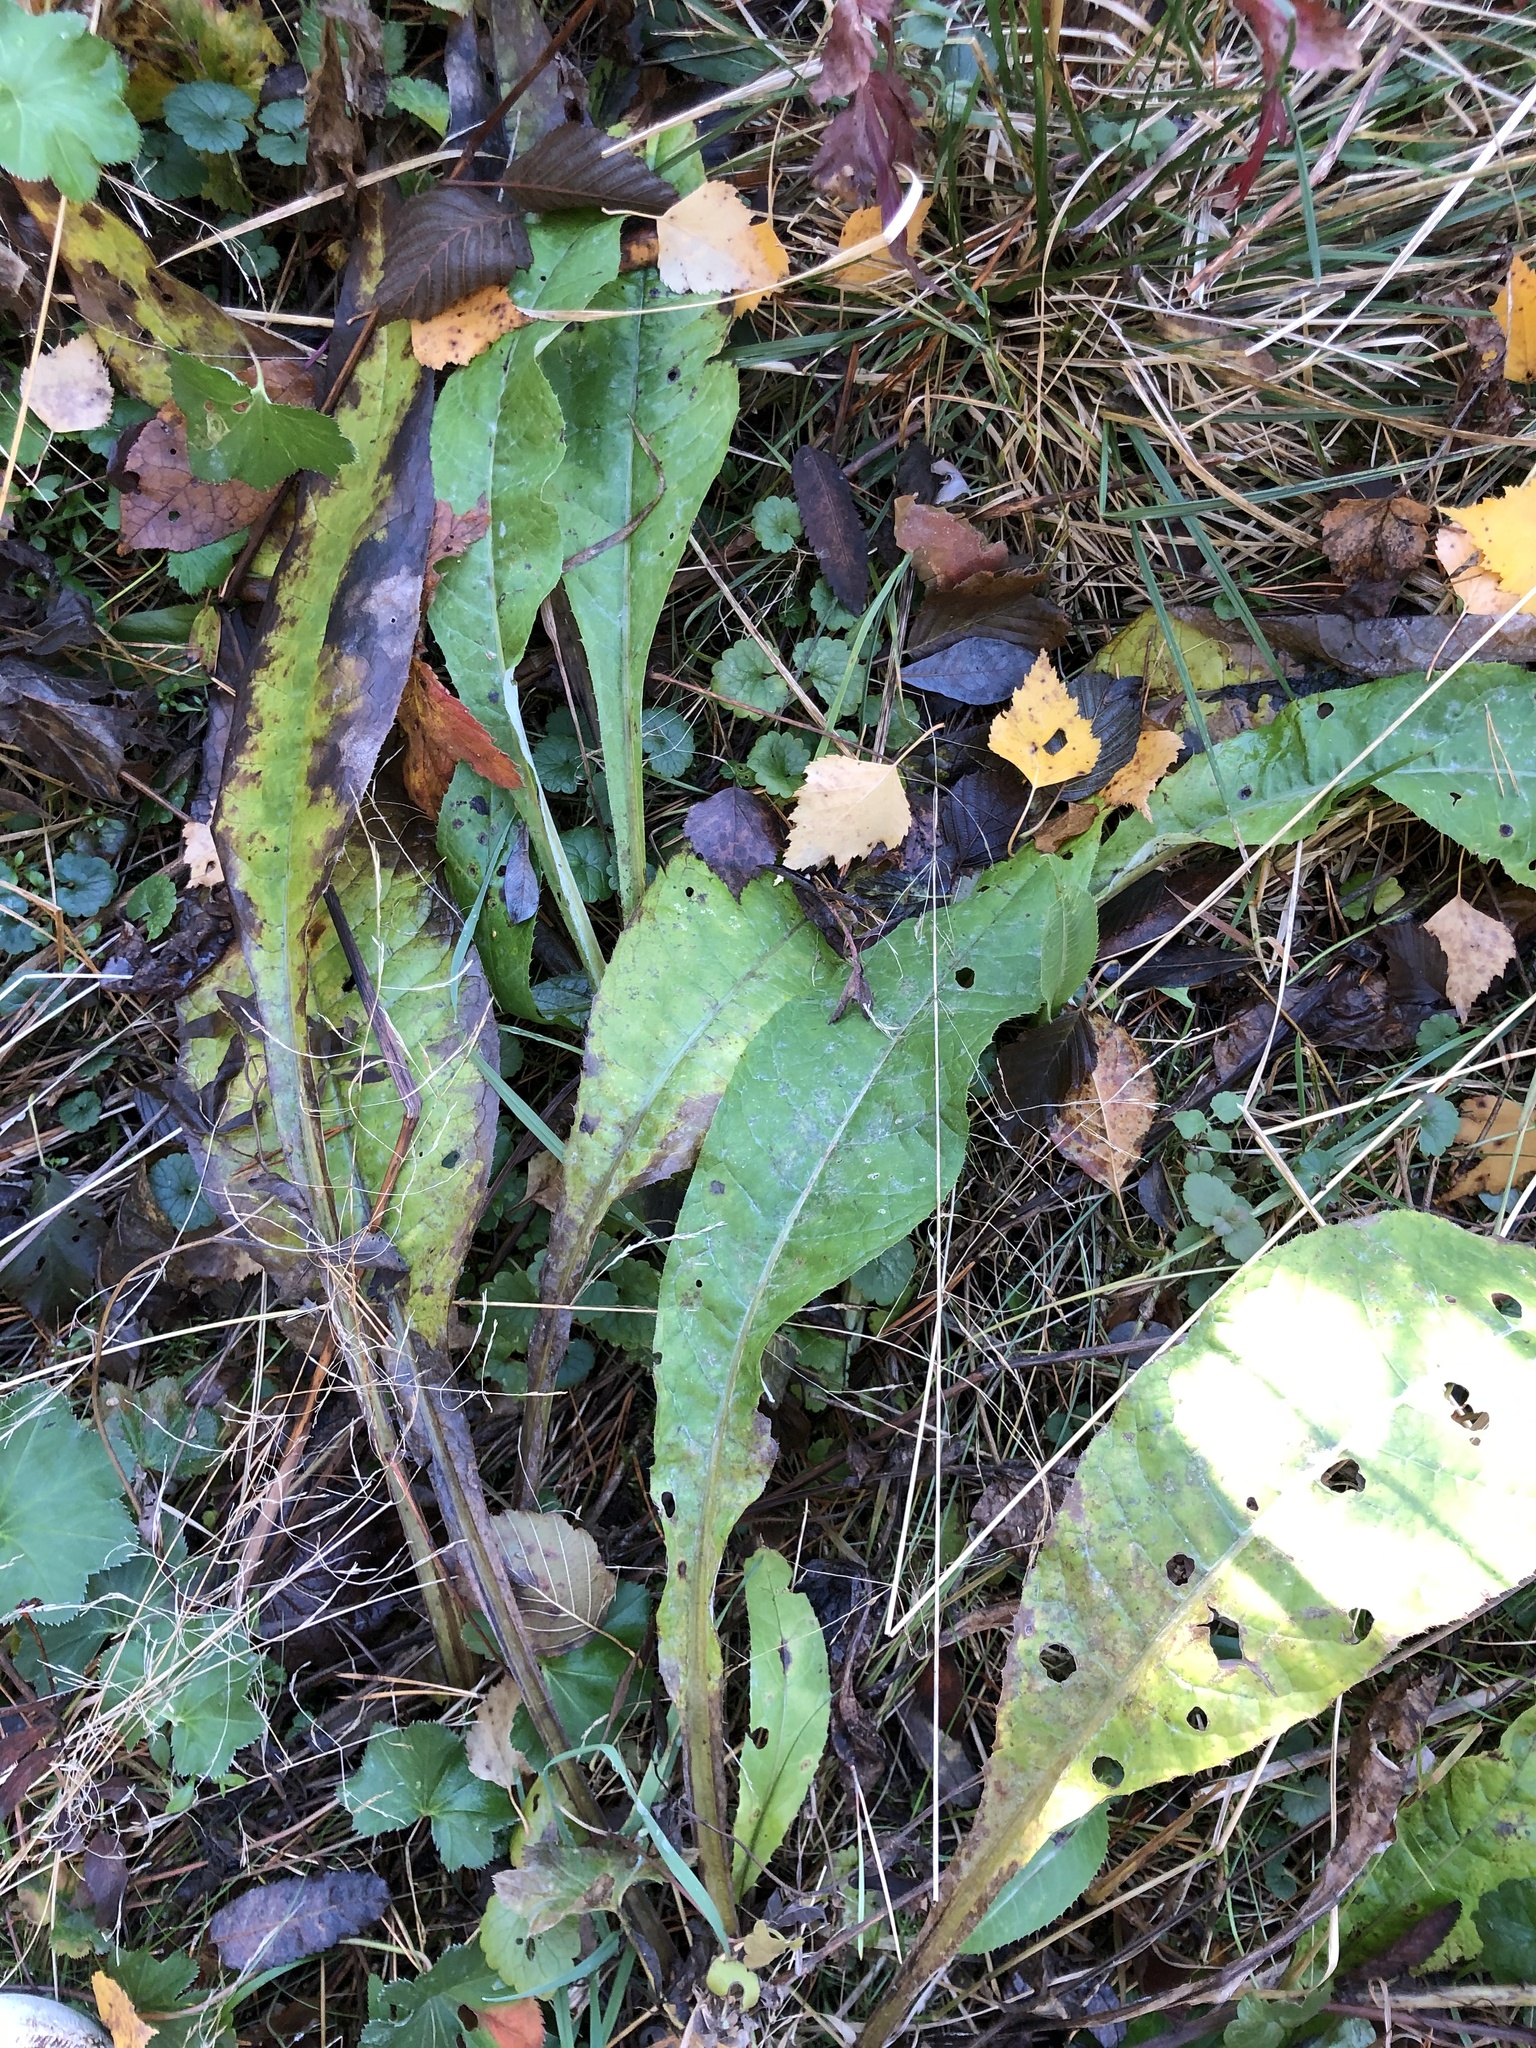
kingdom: Plantae
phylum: Tracheophyta
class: Magnoliopsida
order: Asterales
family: Asteraceae
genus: Cirsium
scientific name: Cirsium heterophyllum
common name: Melancholy thistle
